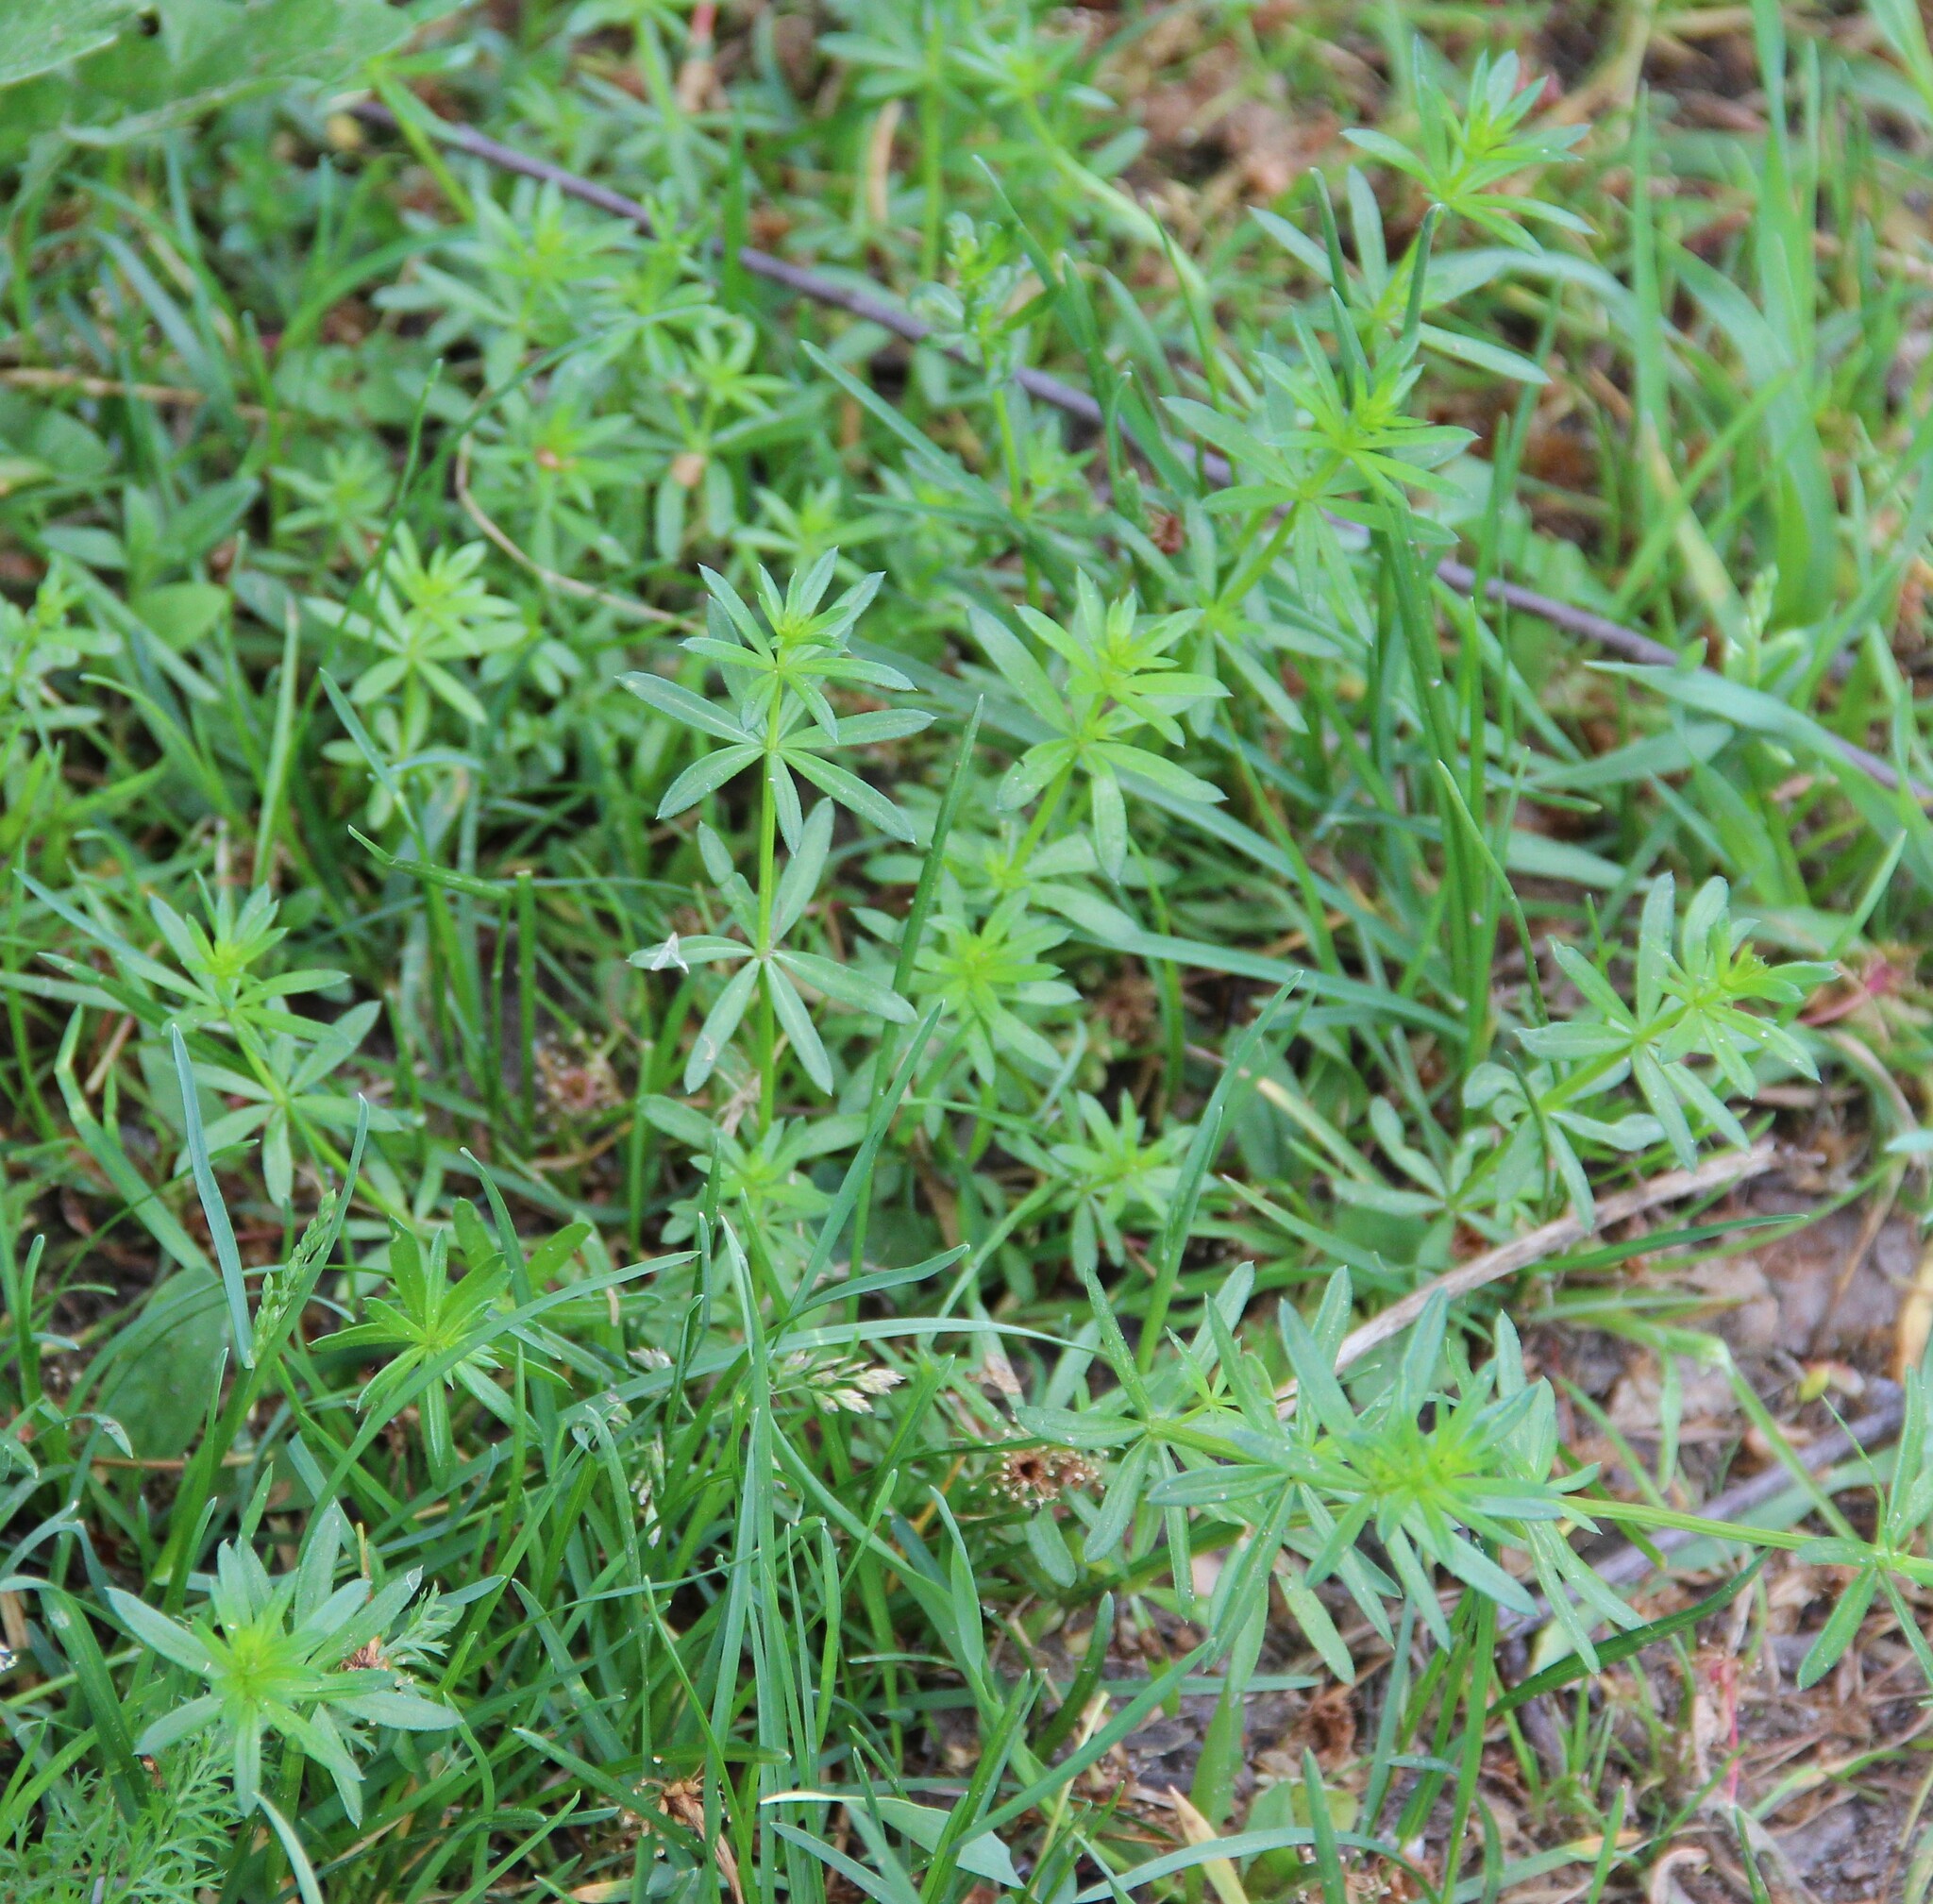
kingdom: Plantae
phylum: Tracheophyta
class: Magnoliopsida
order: Gentianales
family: Rubiaceae
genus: Galium
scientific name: Galium mollugo
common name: Hedge bedstraw
